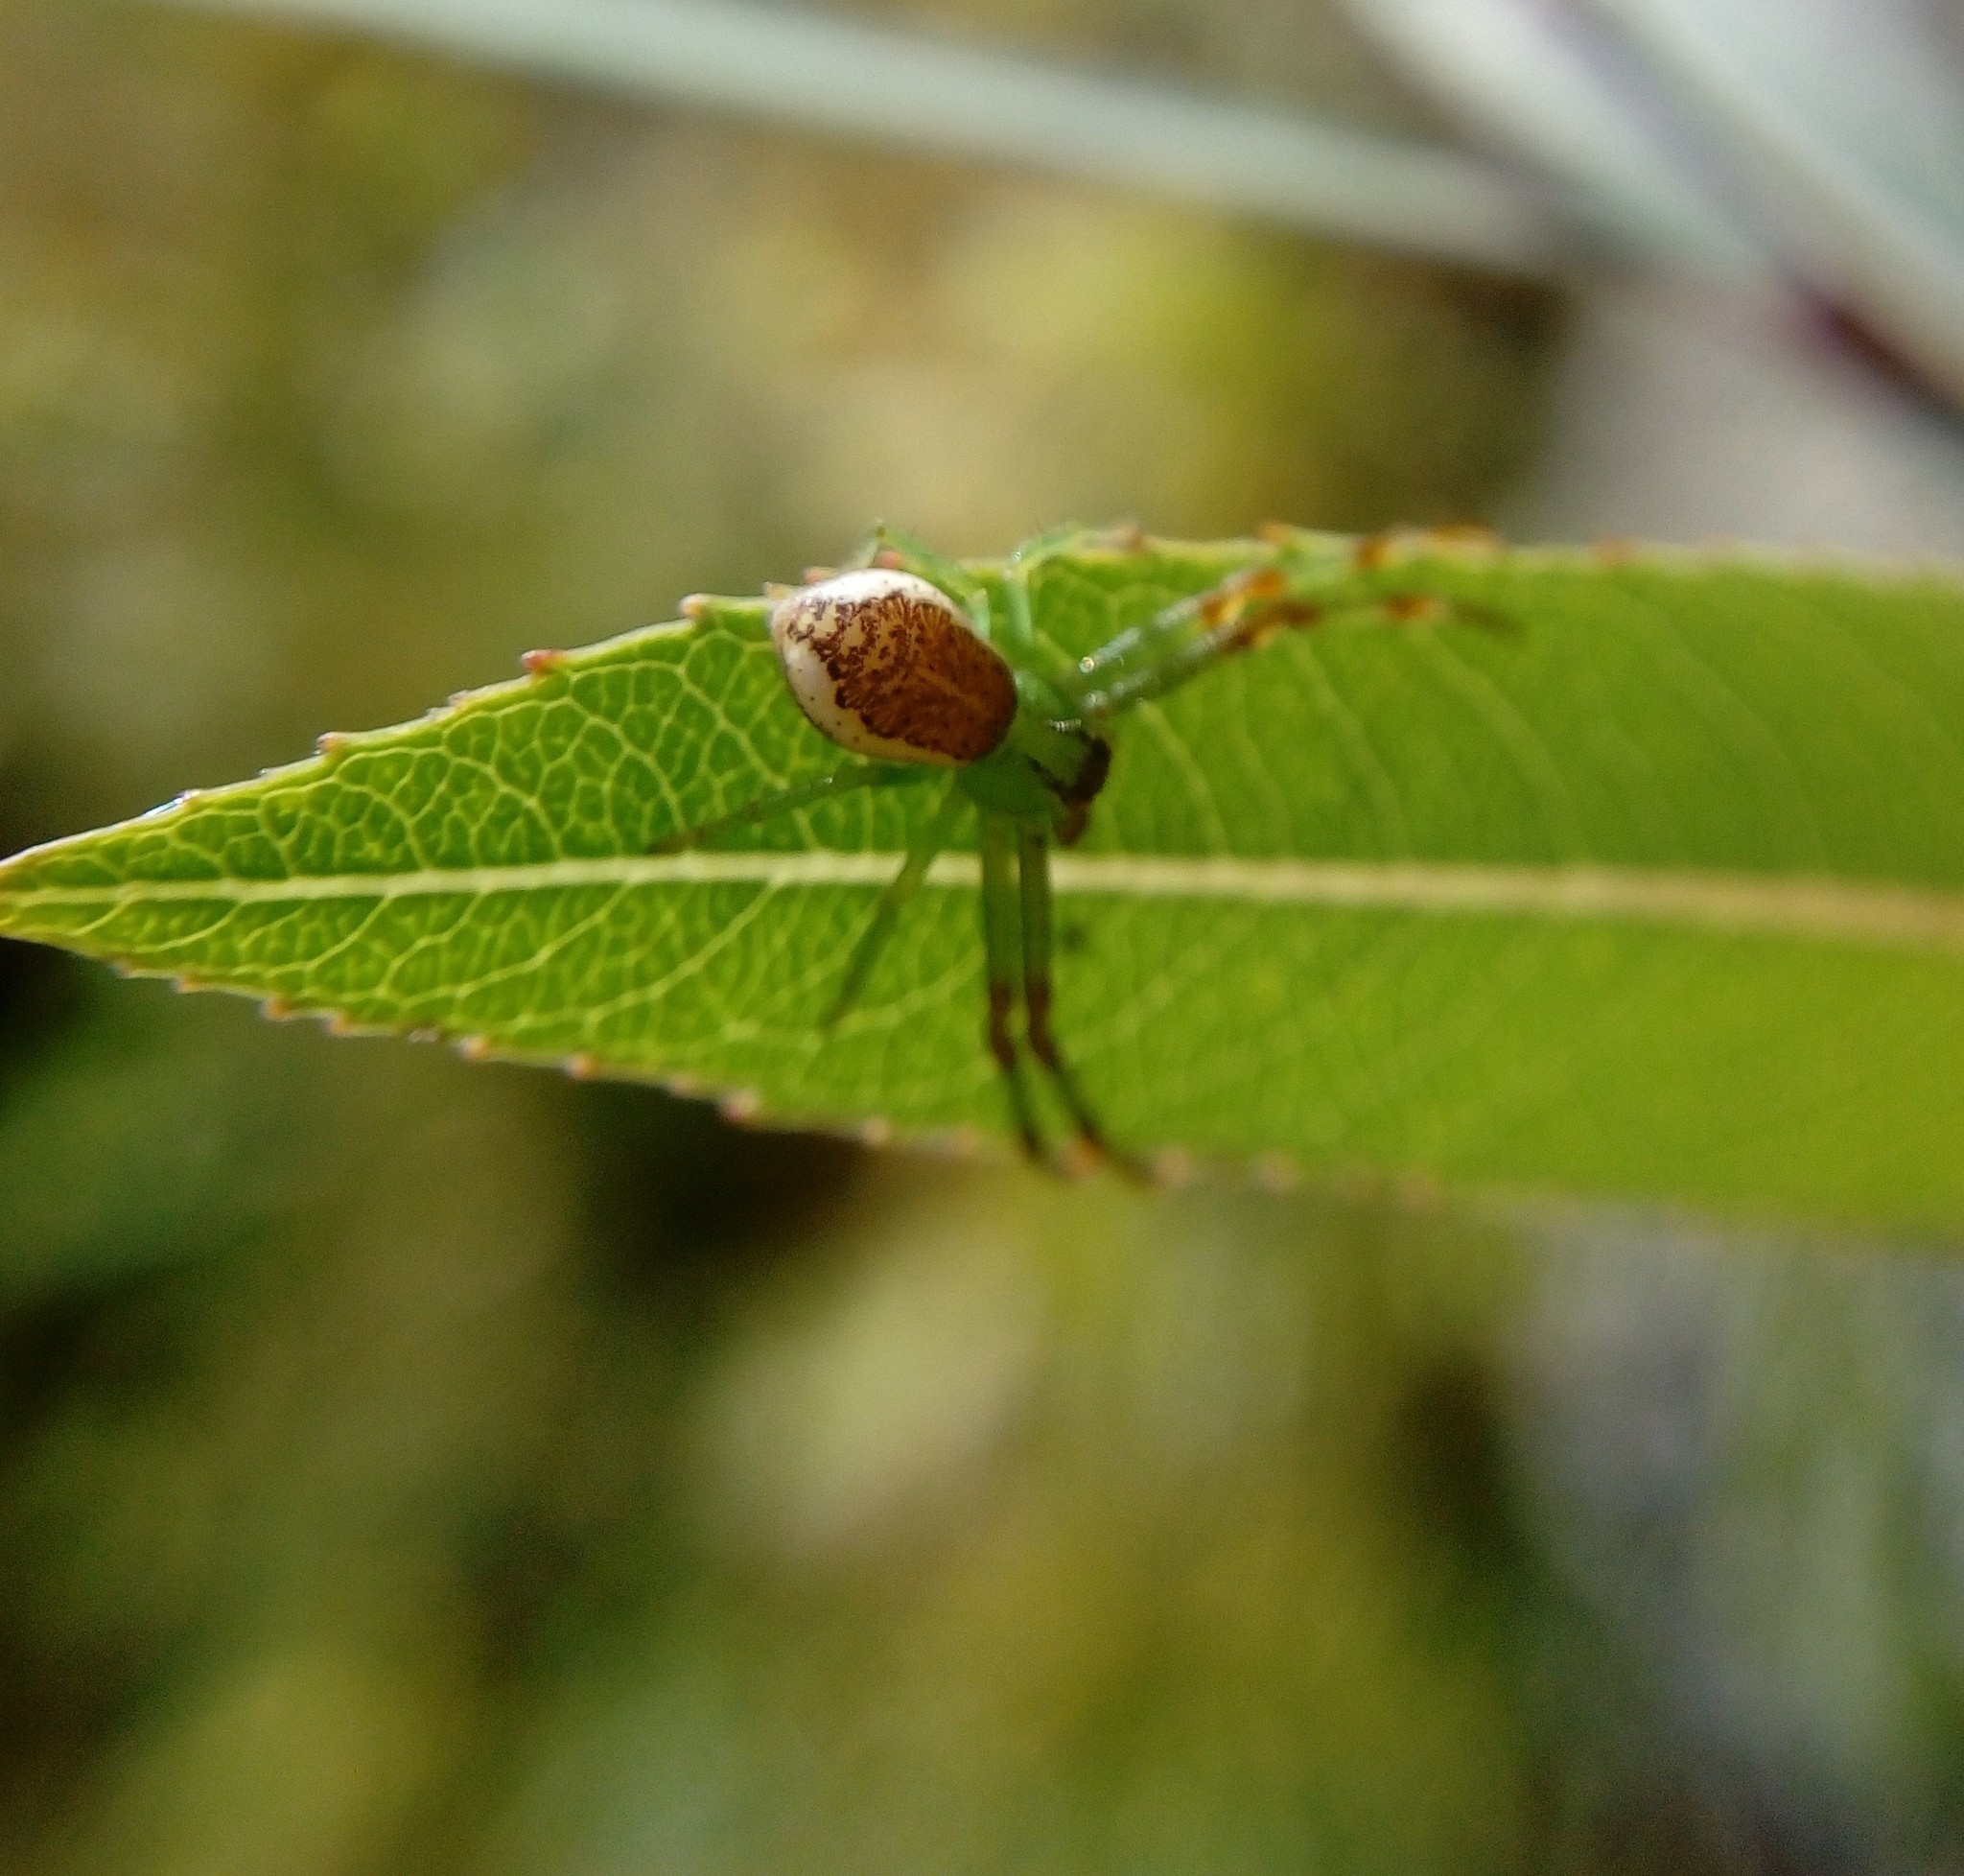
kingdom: Animalia
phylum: Arthropoda
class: Arachnida
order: Araneae
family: Thomisidae
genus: Diaea
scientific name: Diaea dorsata
